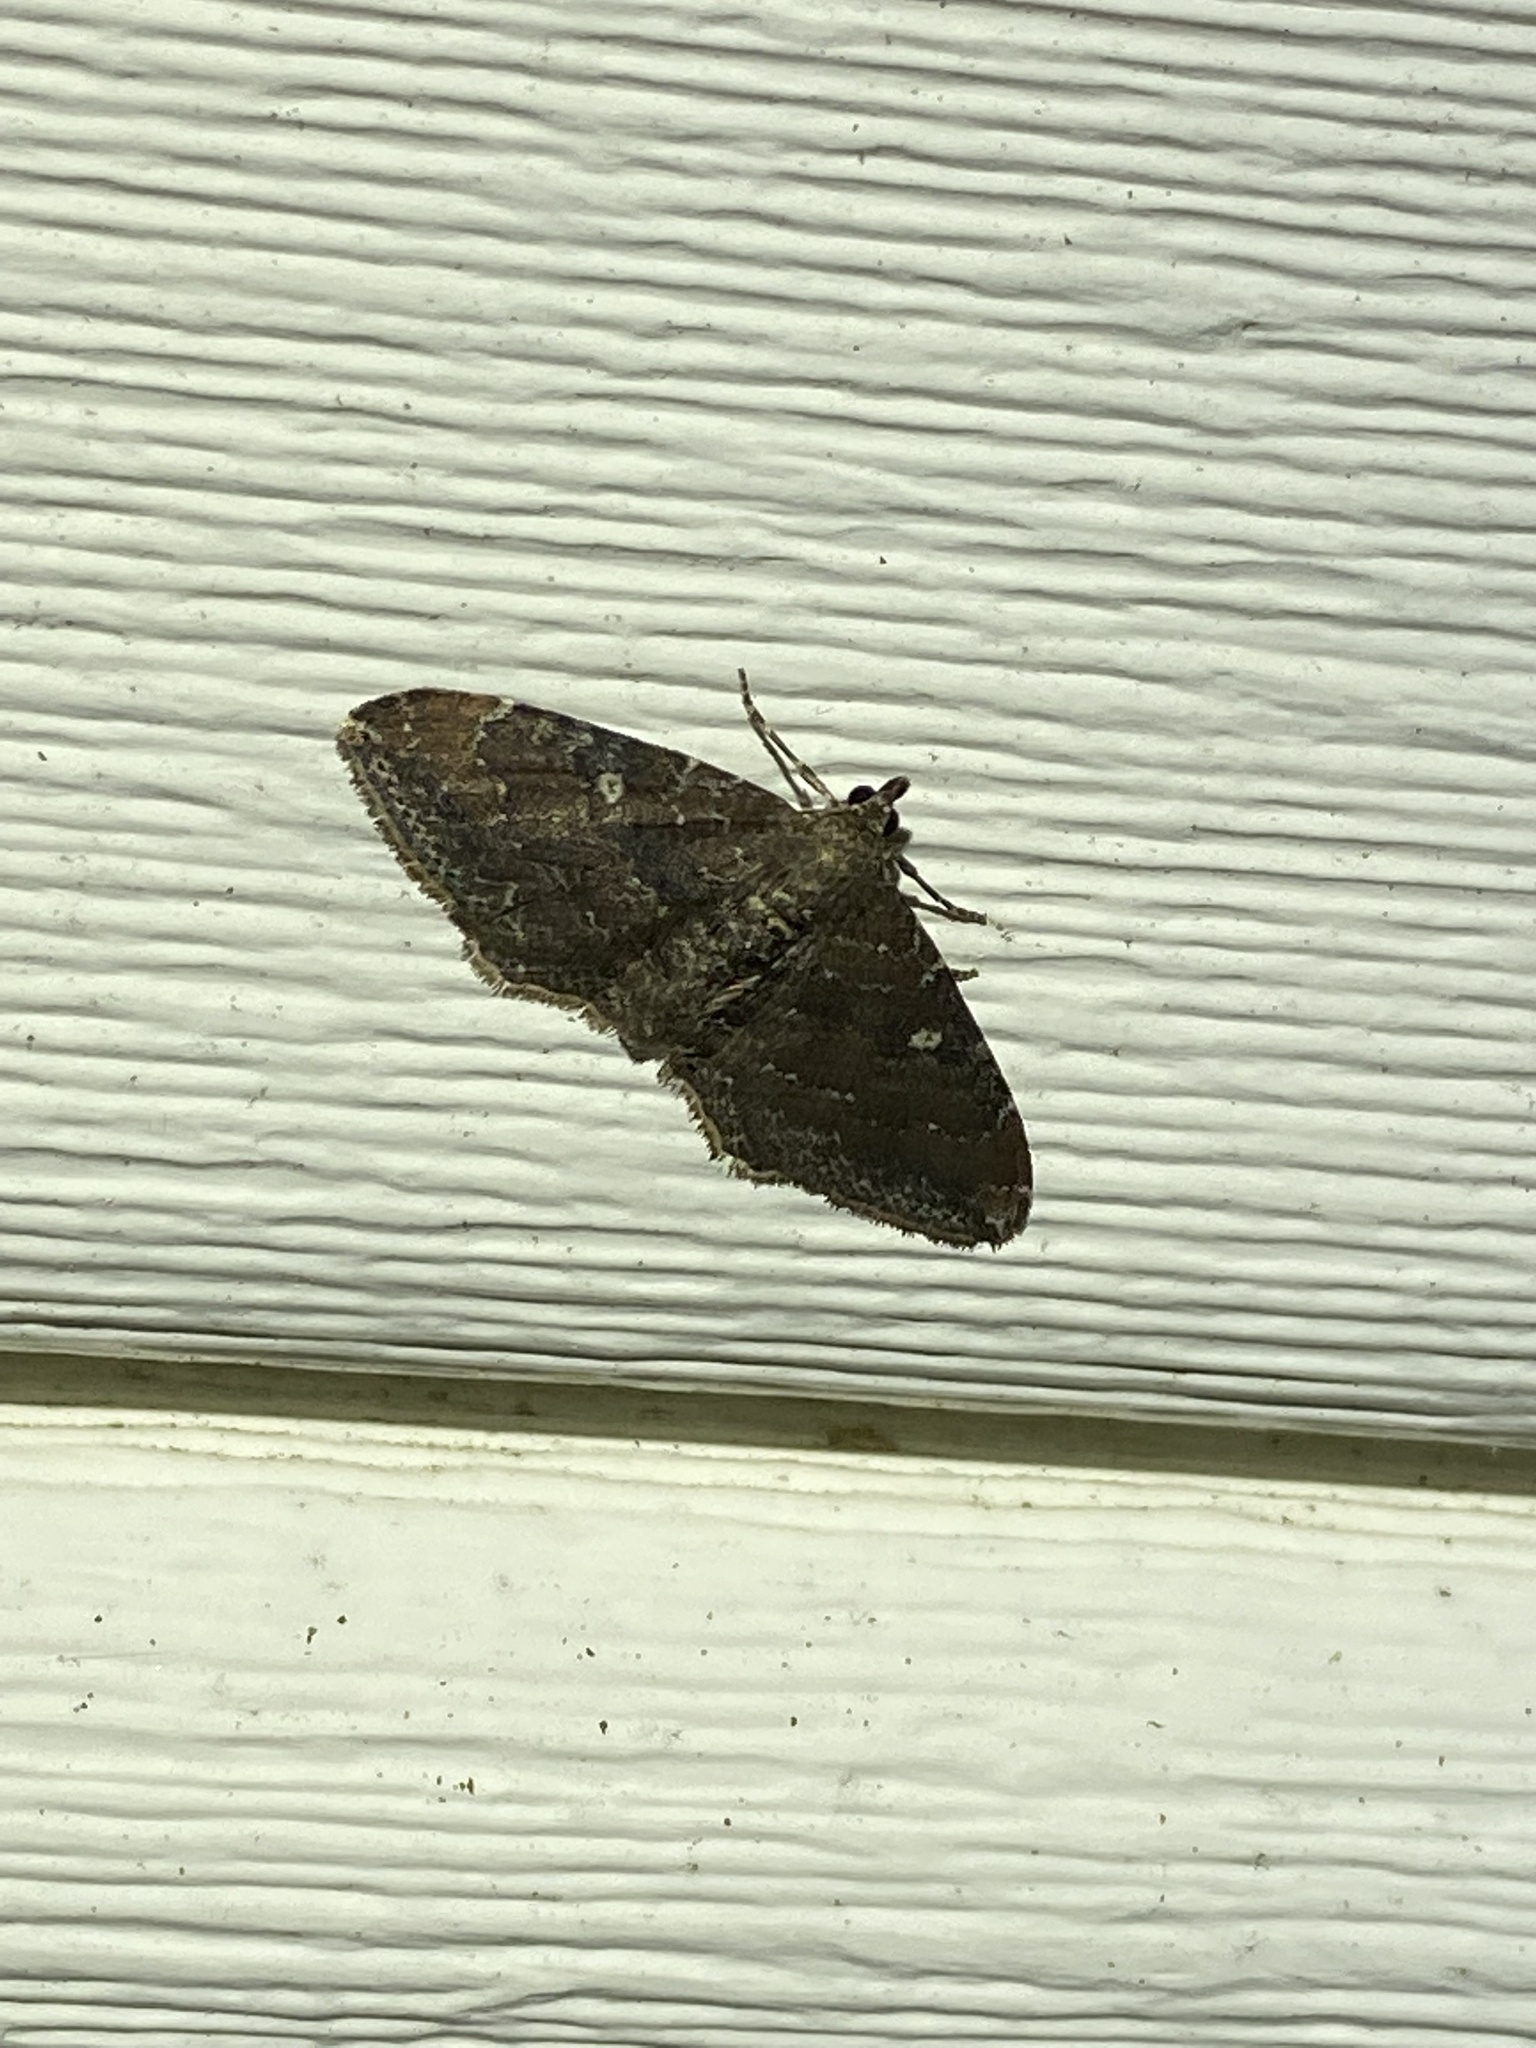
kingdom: Animalia
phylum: Arthropoda
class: Insecta
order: Lepidoptera
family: Geometridae
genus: Orthonama
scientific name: Orthonama obstipata
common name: The gem
